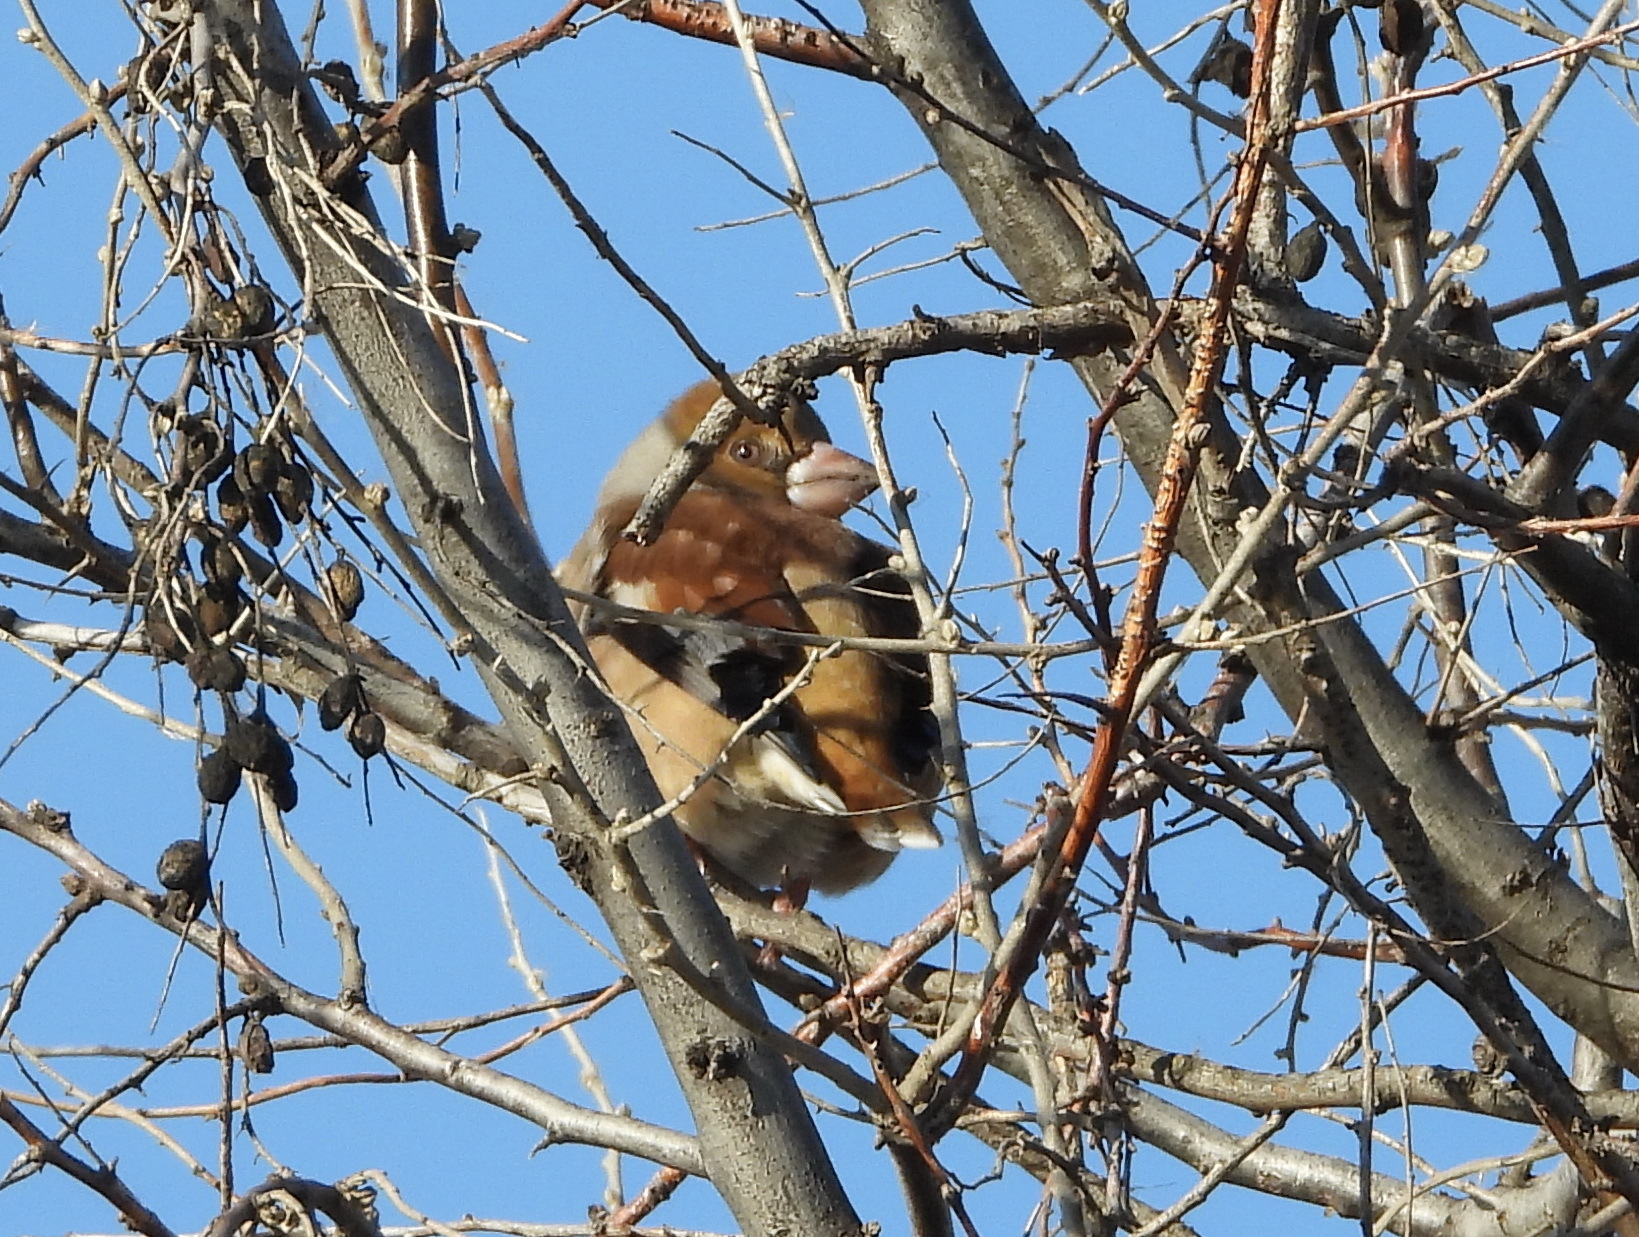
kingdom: Animalia
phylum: Chordata
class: Aves
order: Passeriformes
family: Fringillidae
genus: Coccothraustes
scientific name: Coccothraustes coccothraustes
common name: Hawfinch
